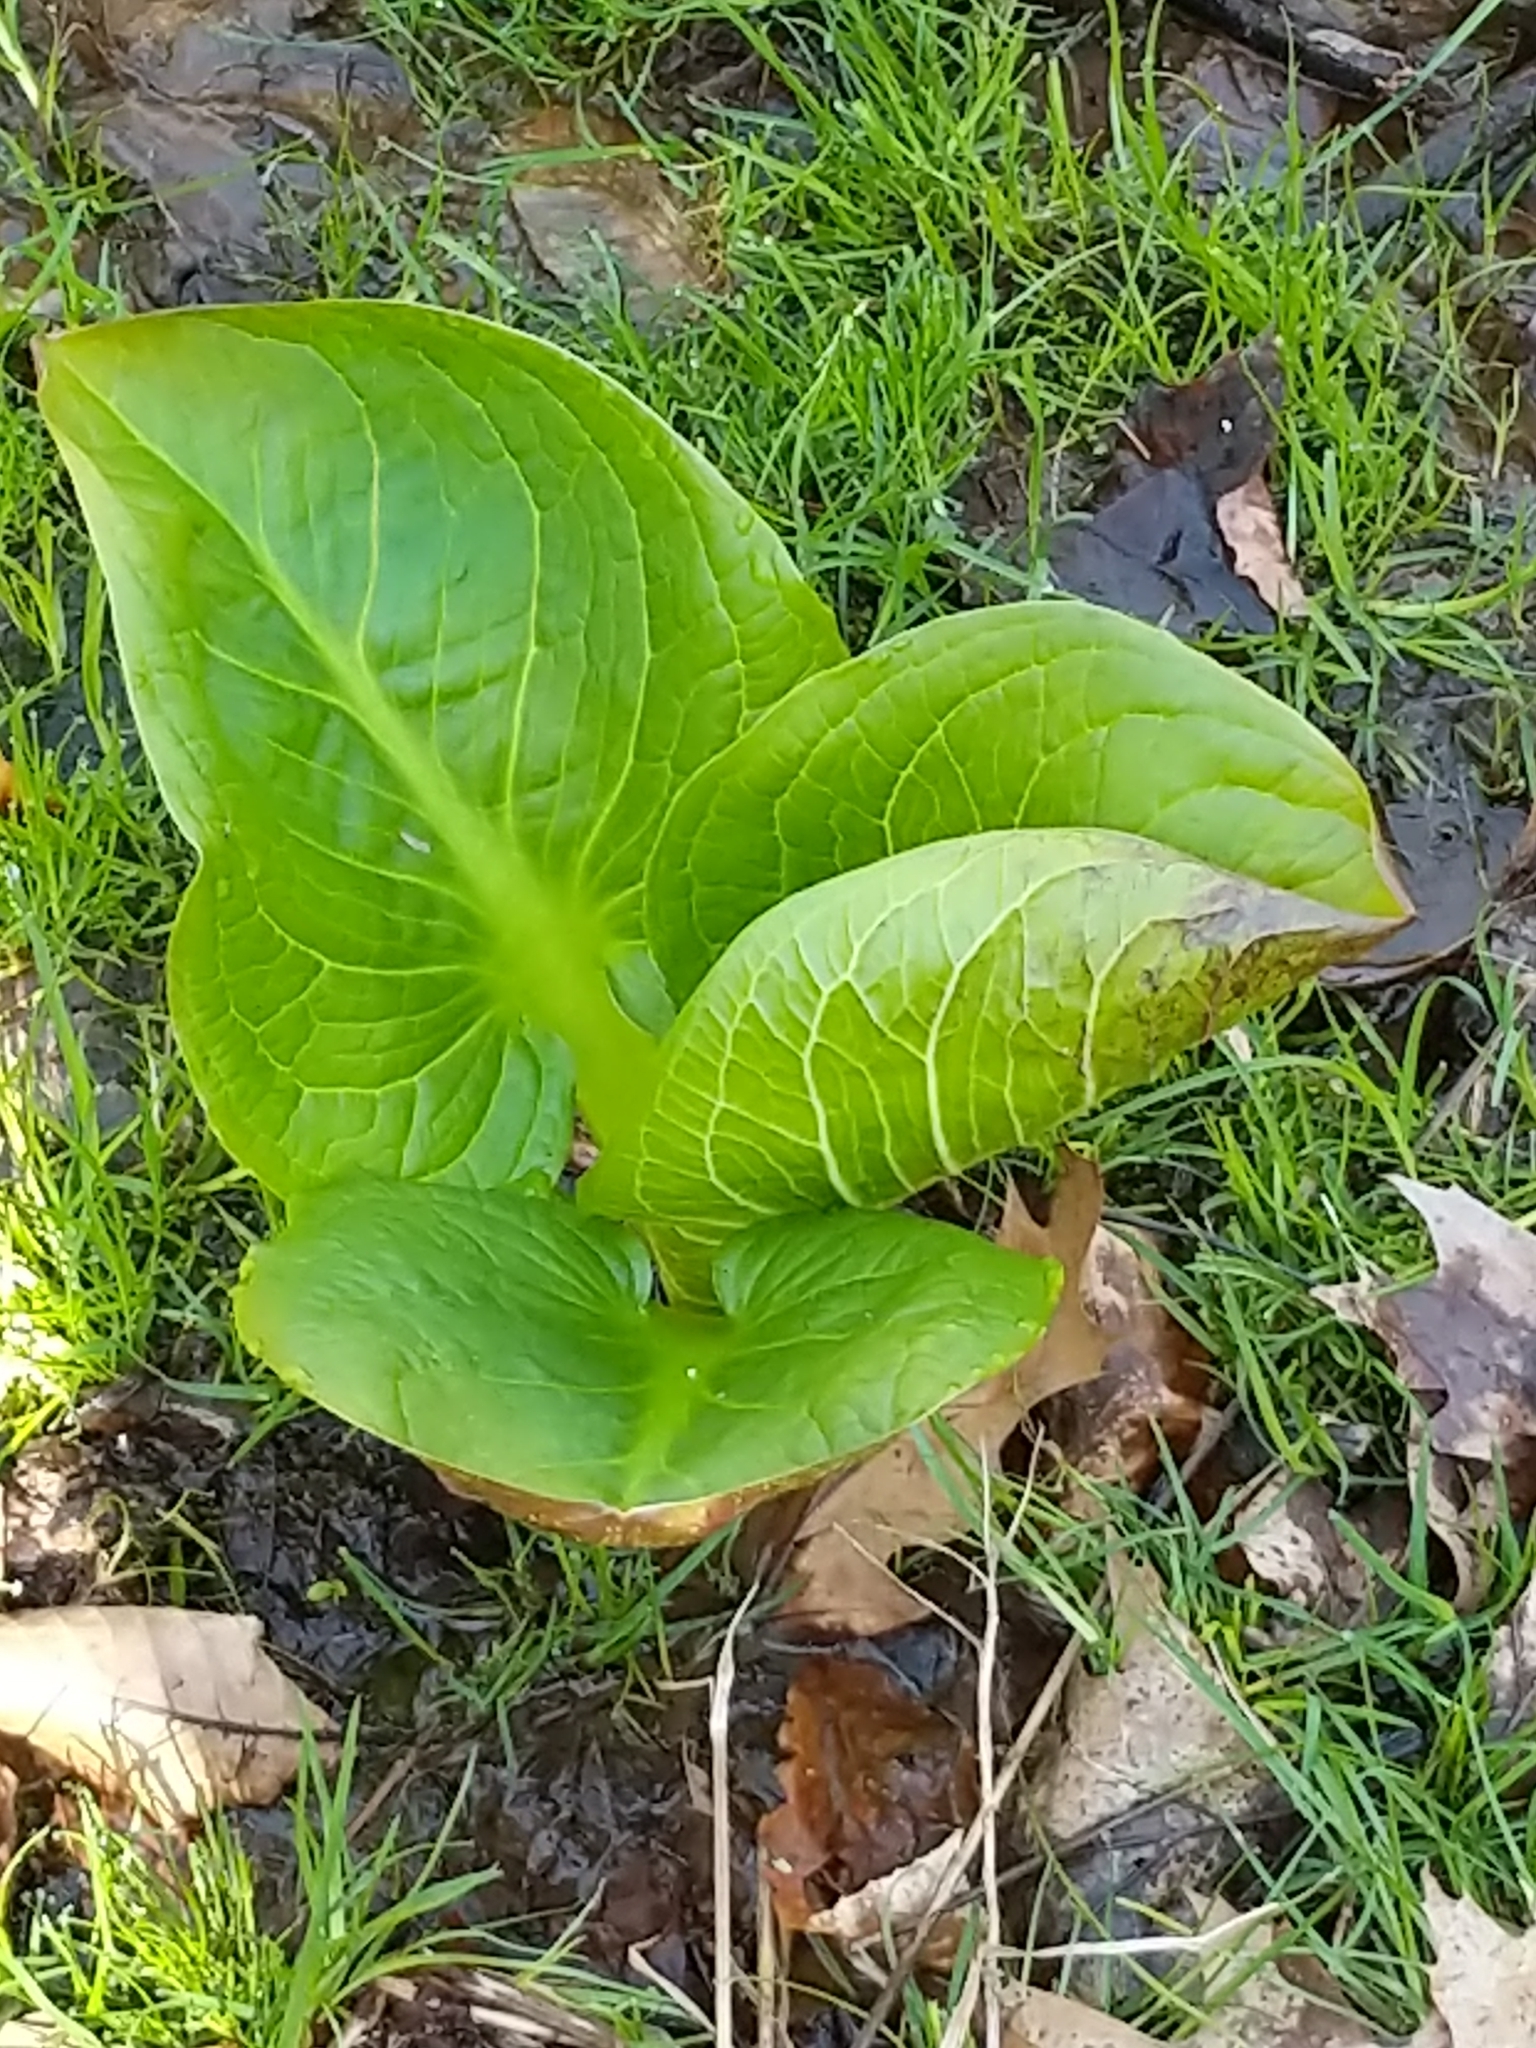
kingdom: Plantae
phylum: Tracheophyta
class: Liliopsida
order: Alismatales
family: Araceae
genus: Symplocarpus
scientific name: Symplocarpus foetidus
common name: Eastern skunk cabbage
